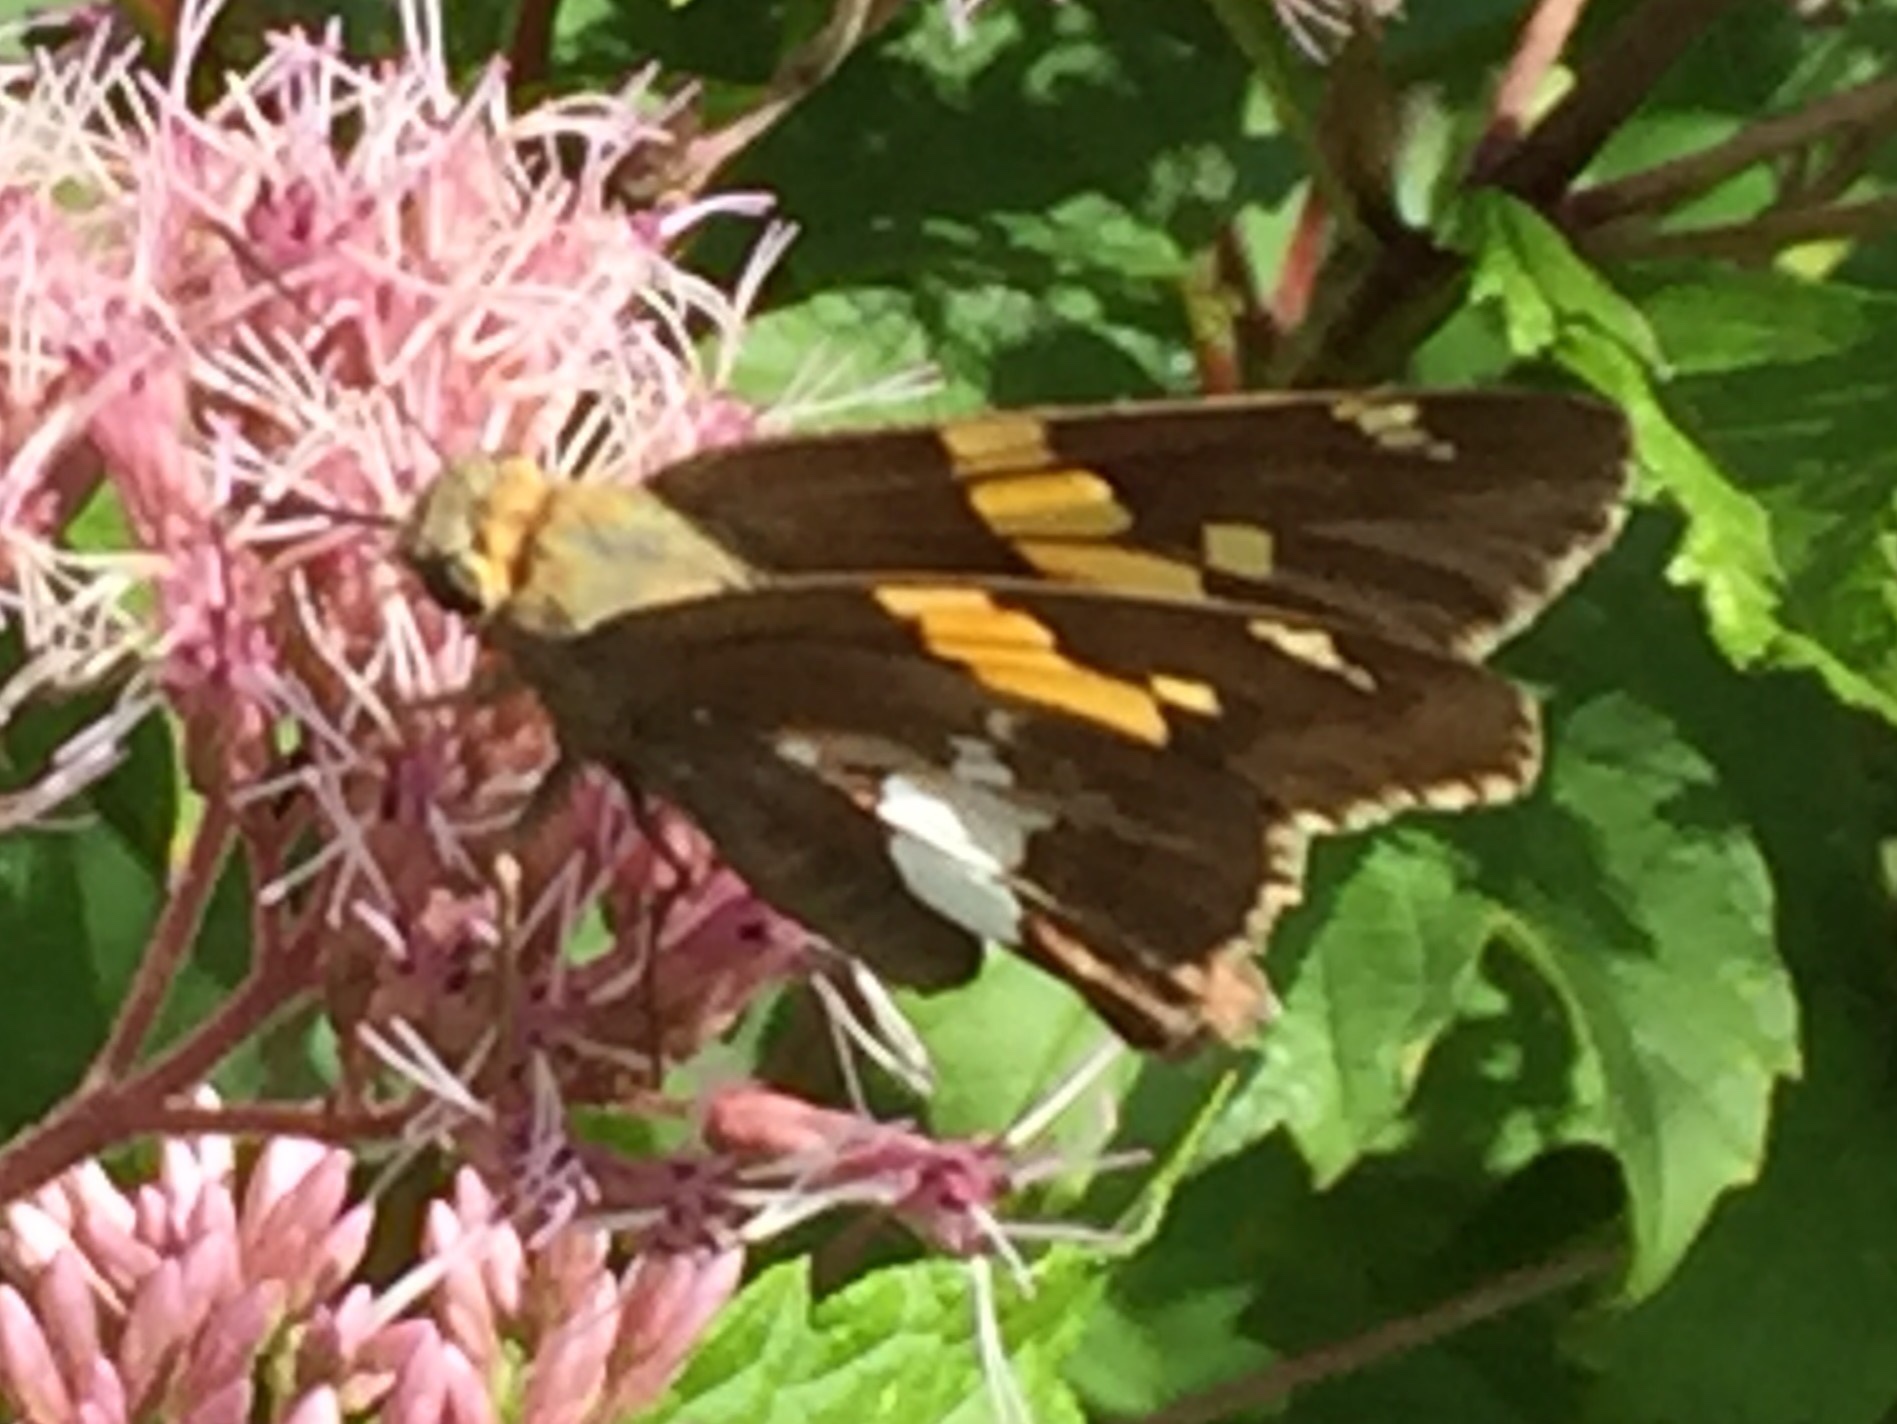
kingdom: Animalia
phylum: Arthropoda
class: Insecta
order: Lepidoptera
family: Hesperiidae
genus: Epargyreus
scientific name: Epargyreus clarus
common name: Silver-spotted skipper
